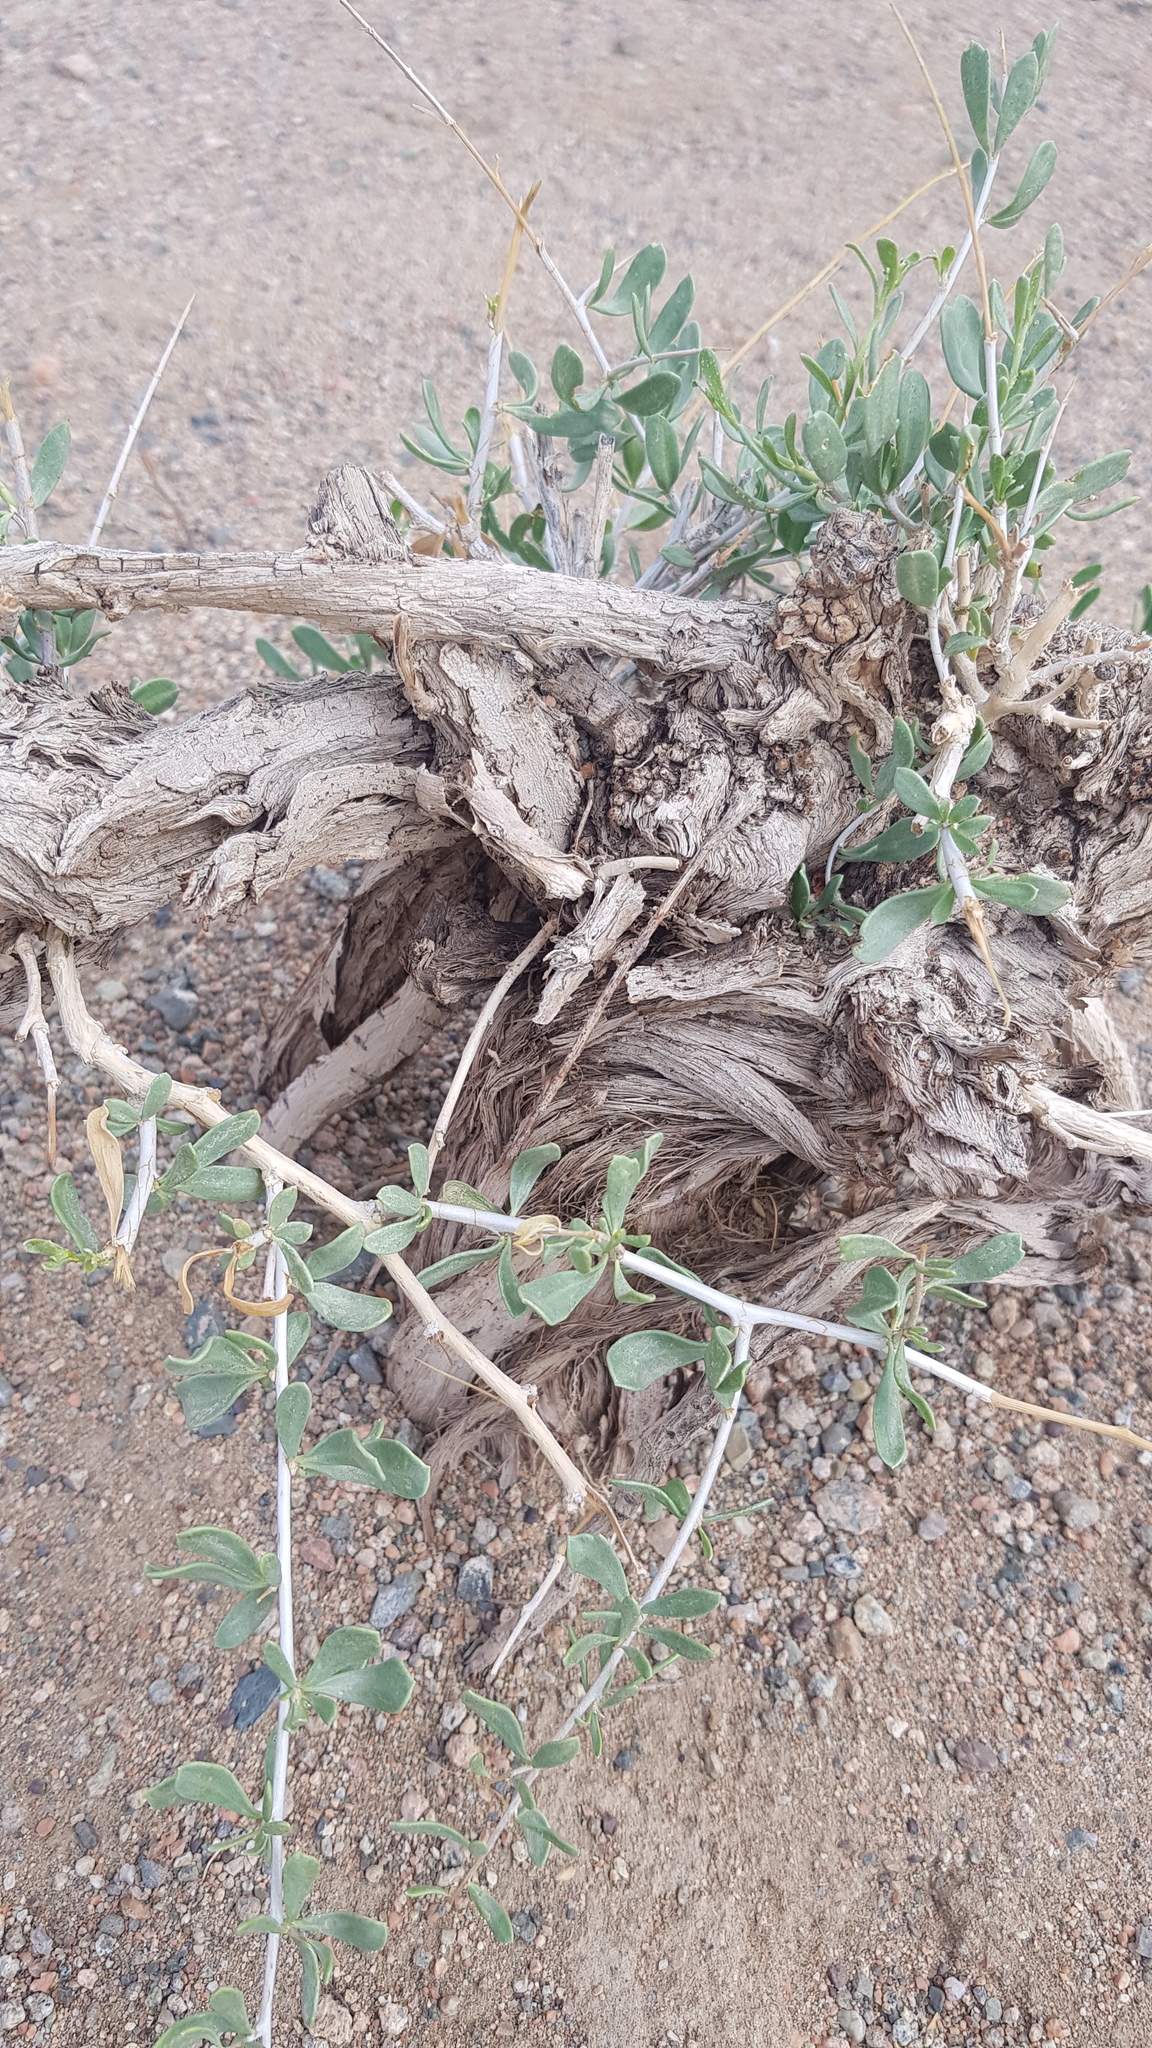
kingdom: Plantae
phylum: Tracheophyta
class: Magnoliopsida
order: Sapindales
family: Nitrariaceae
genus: Nitraria
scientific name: Nitraria sibirica
